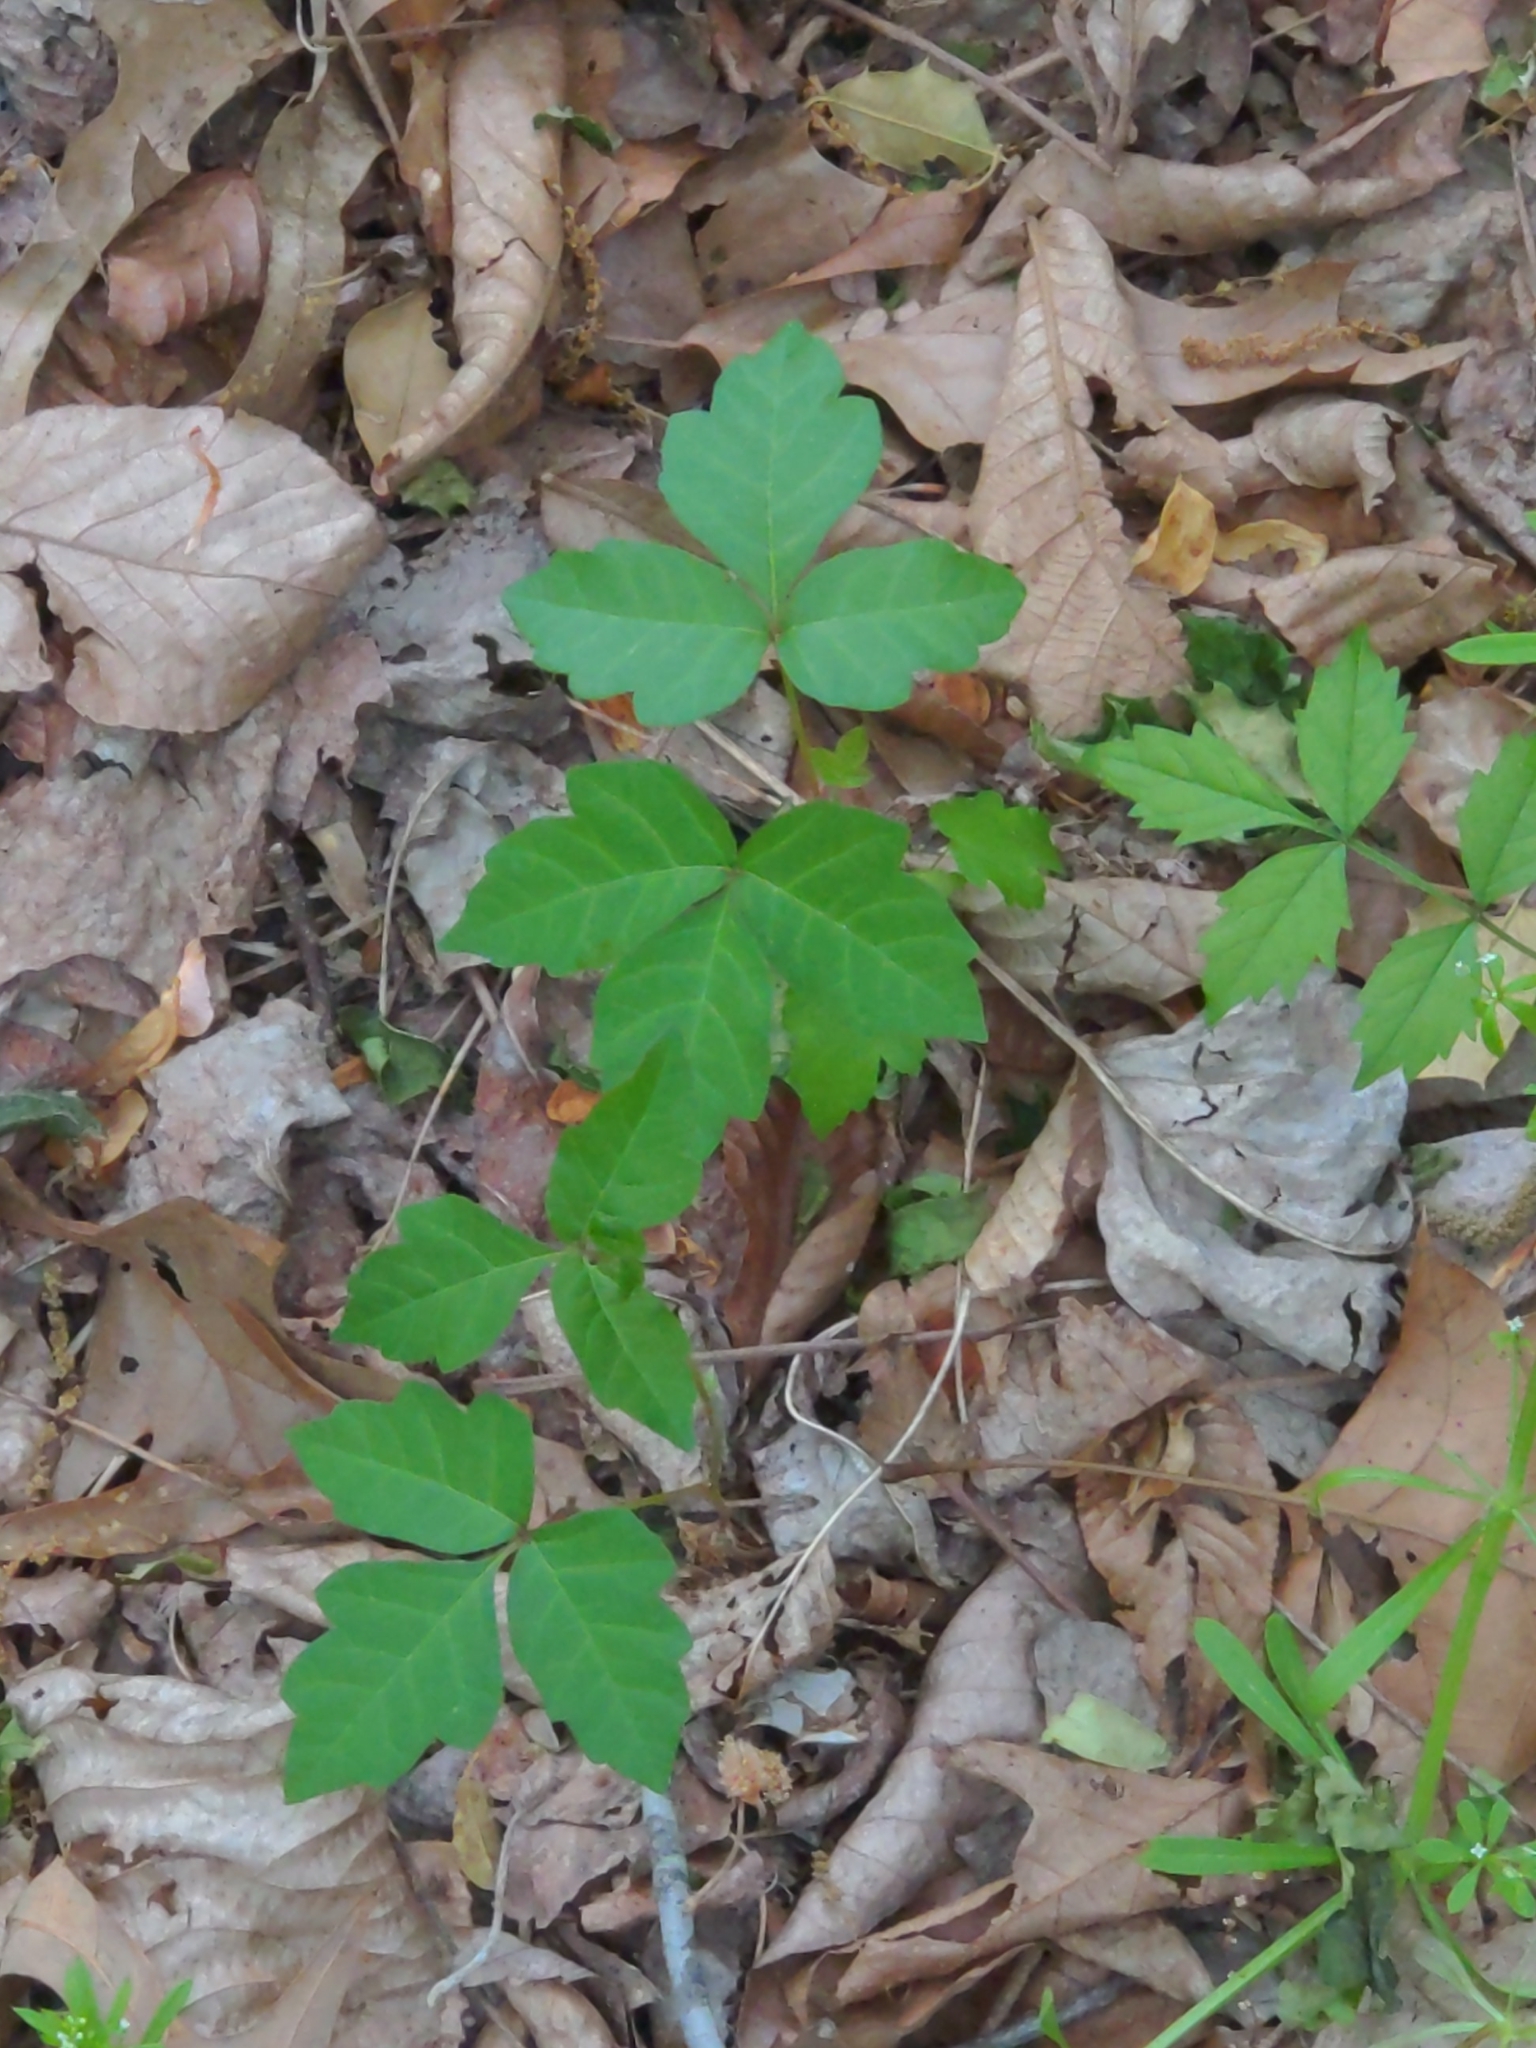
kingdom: Plantae
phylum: Tracheophyta
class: Magnoliopsida
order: Sapindales
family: Anacardiaceae
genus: Toxicodendron
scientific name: Toxicodendron radicans
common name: Poison ivy
